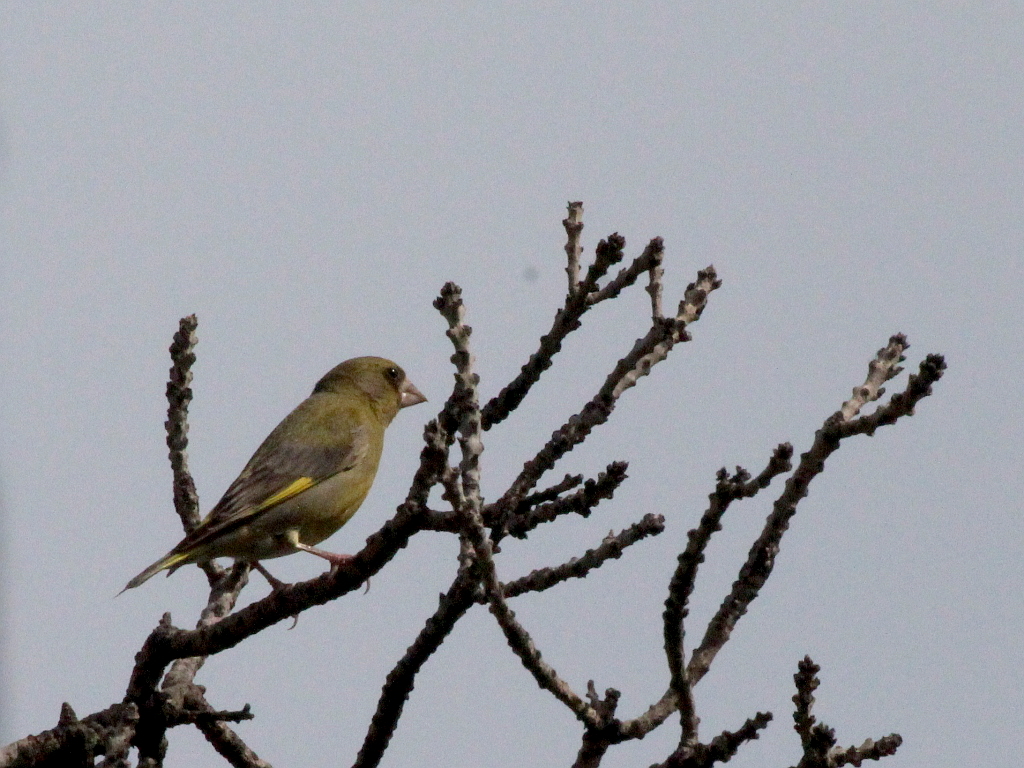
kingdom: Plantae
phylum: Tracheophyta
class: Liliopsida
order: Poales
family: Poaceae
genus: Chloris
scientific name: Chloris chloris
